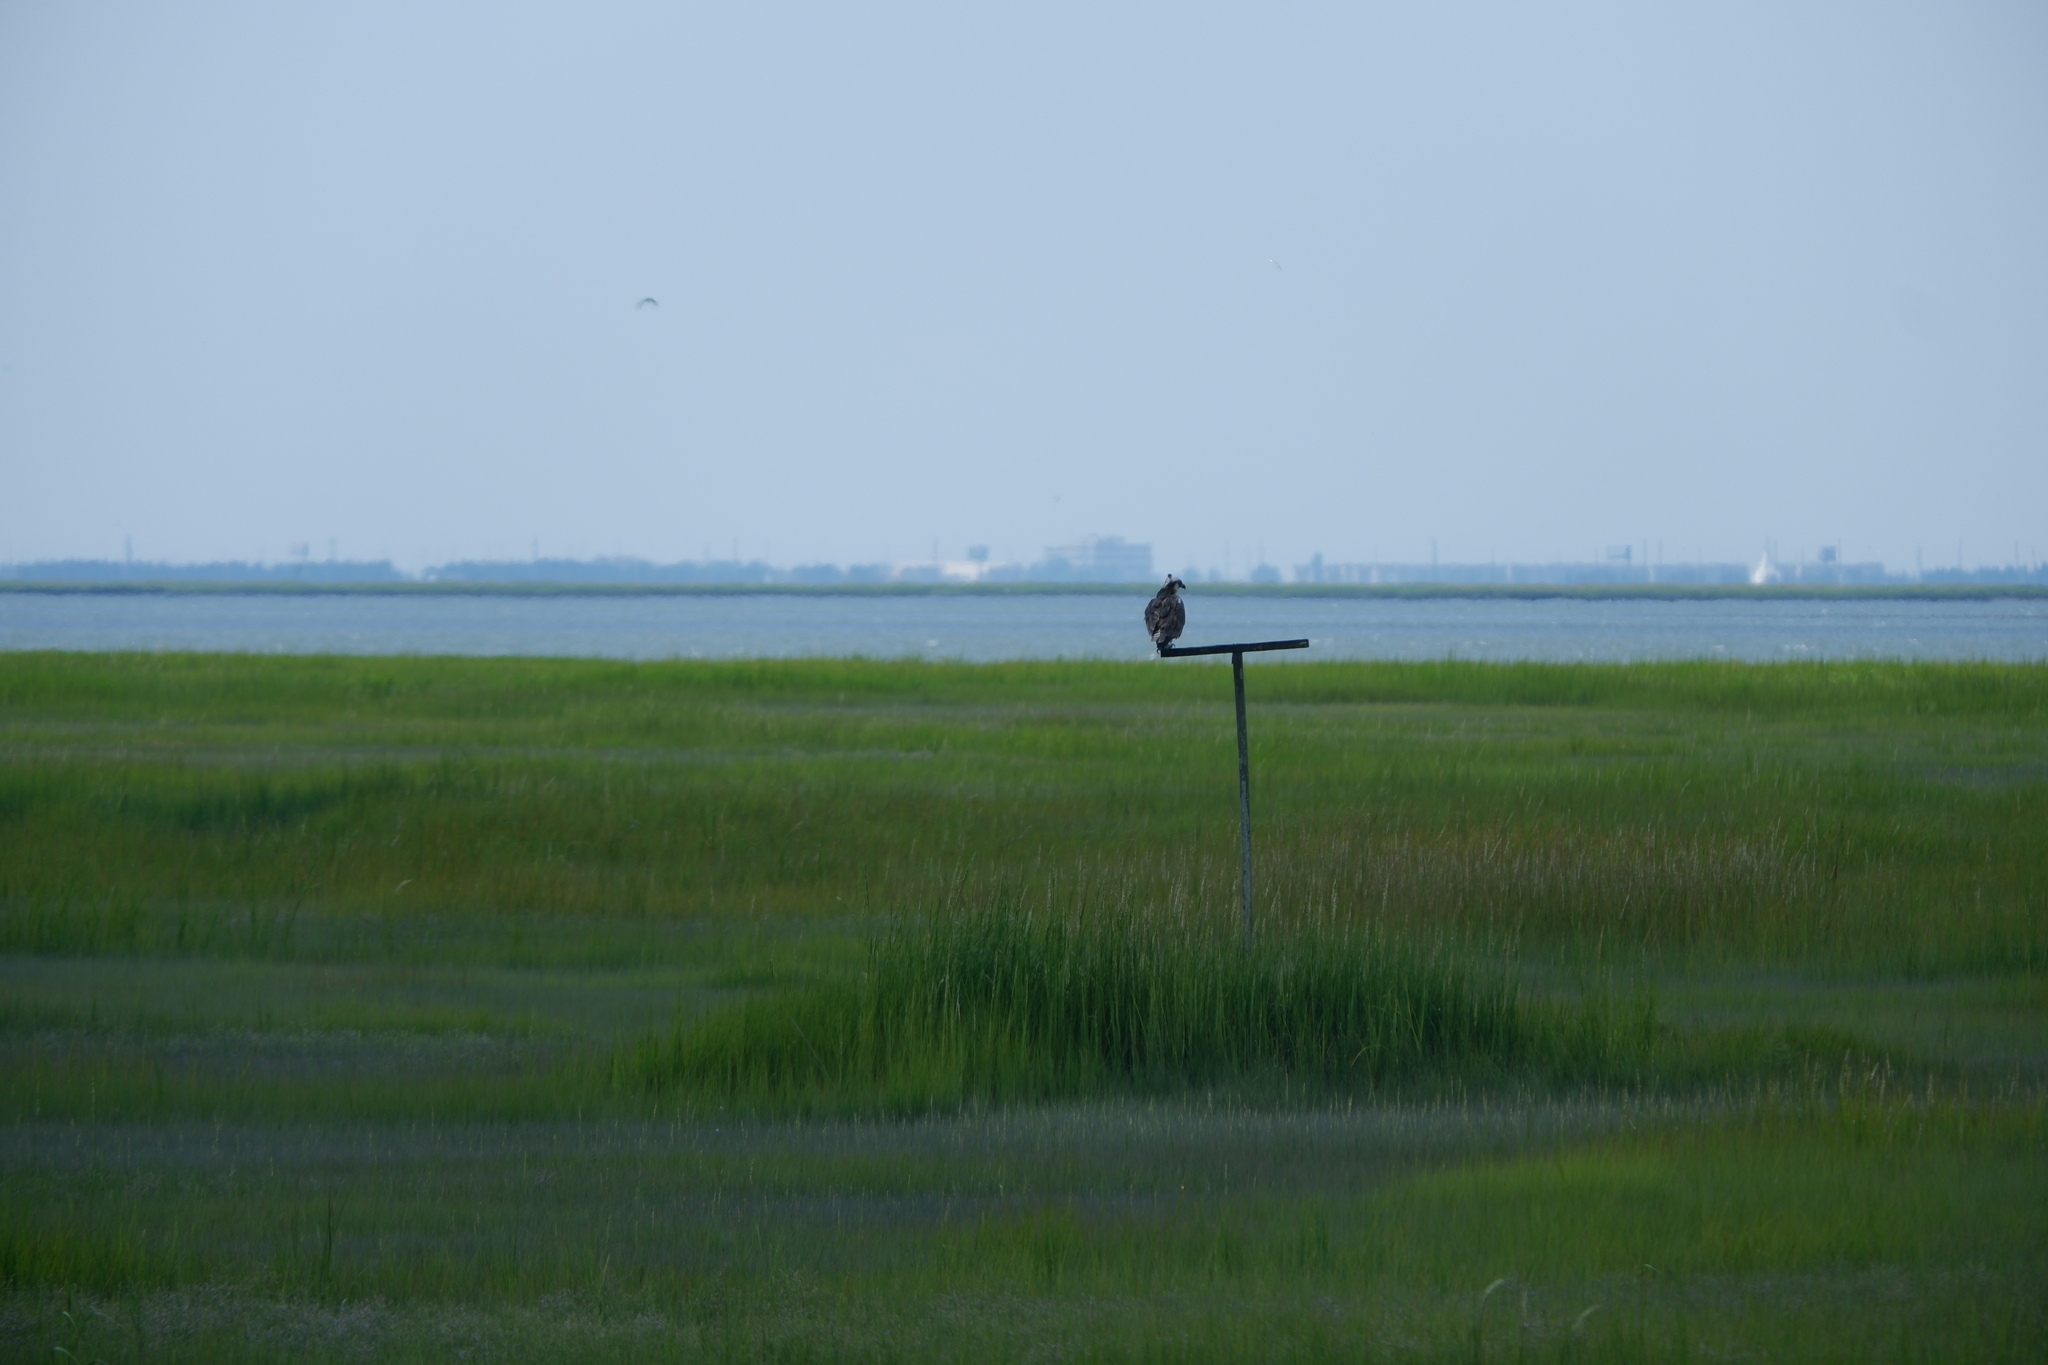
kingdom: Animalia
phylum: Chordata
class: Aves
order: Accipitriformes
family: Pandionidae
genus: Pandion
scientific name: Pandion haliaetus
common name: Osprey
